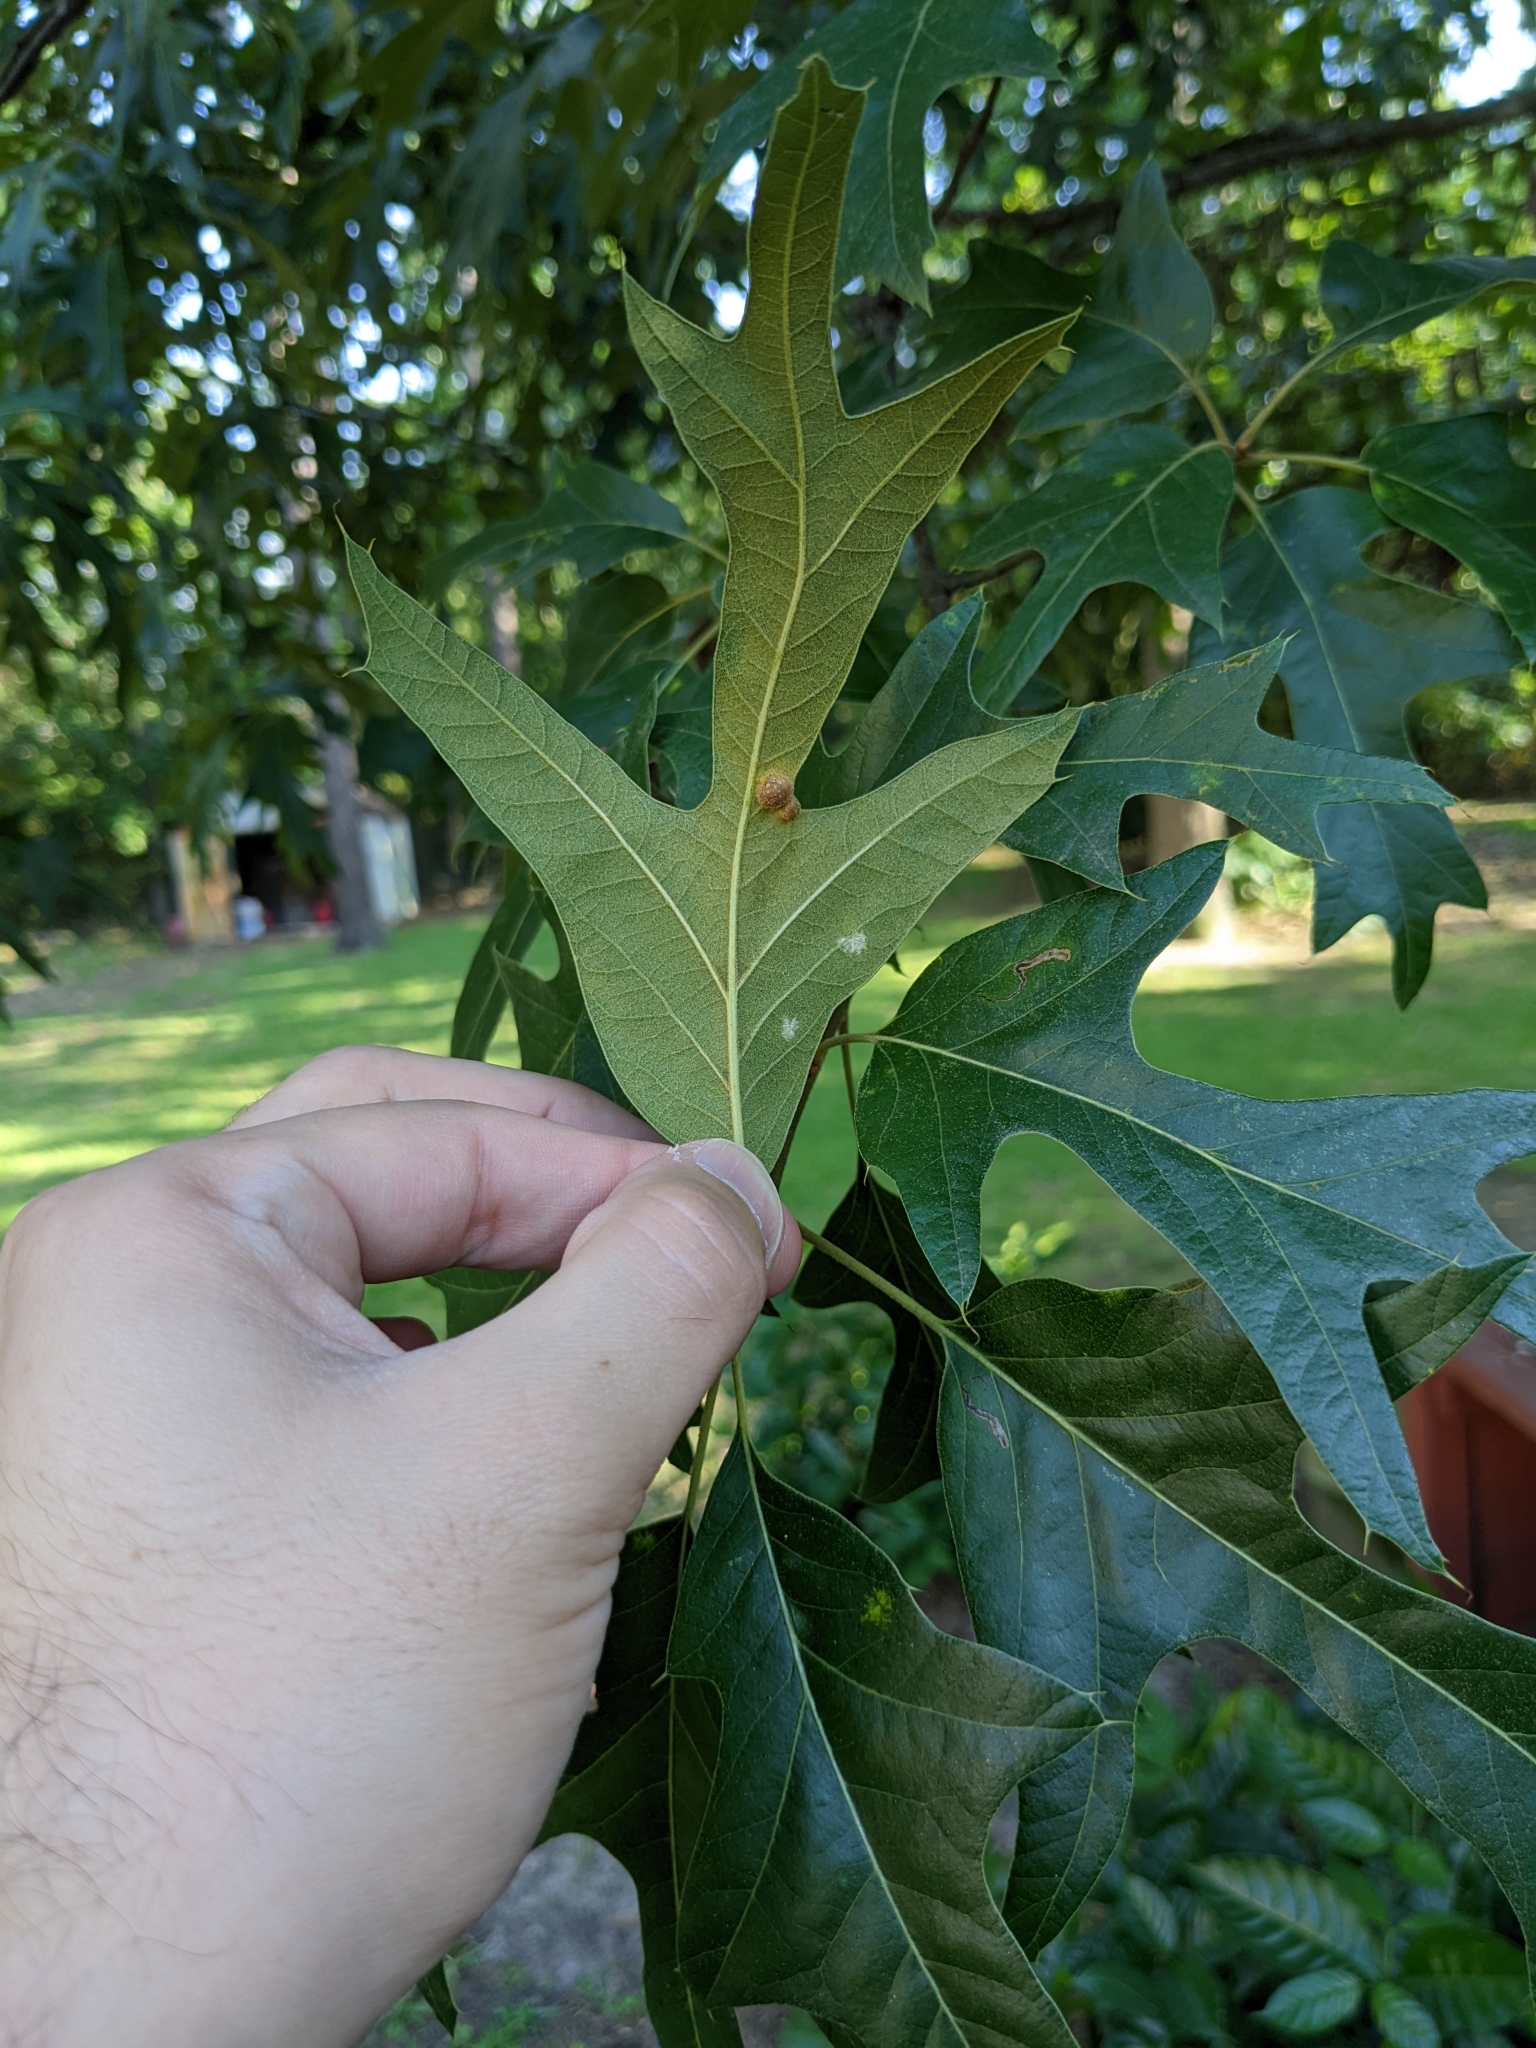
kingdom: Animalia
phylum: Arthropoda
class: Insecta
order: Diptera
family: Cecidomyiidae
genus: Polystepha
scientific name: Polystepha symmetrica
